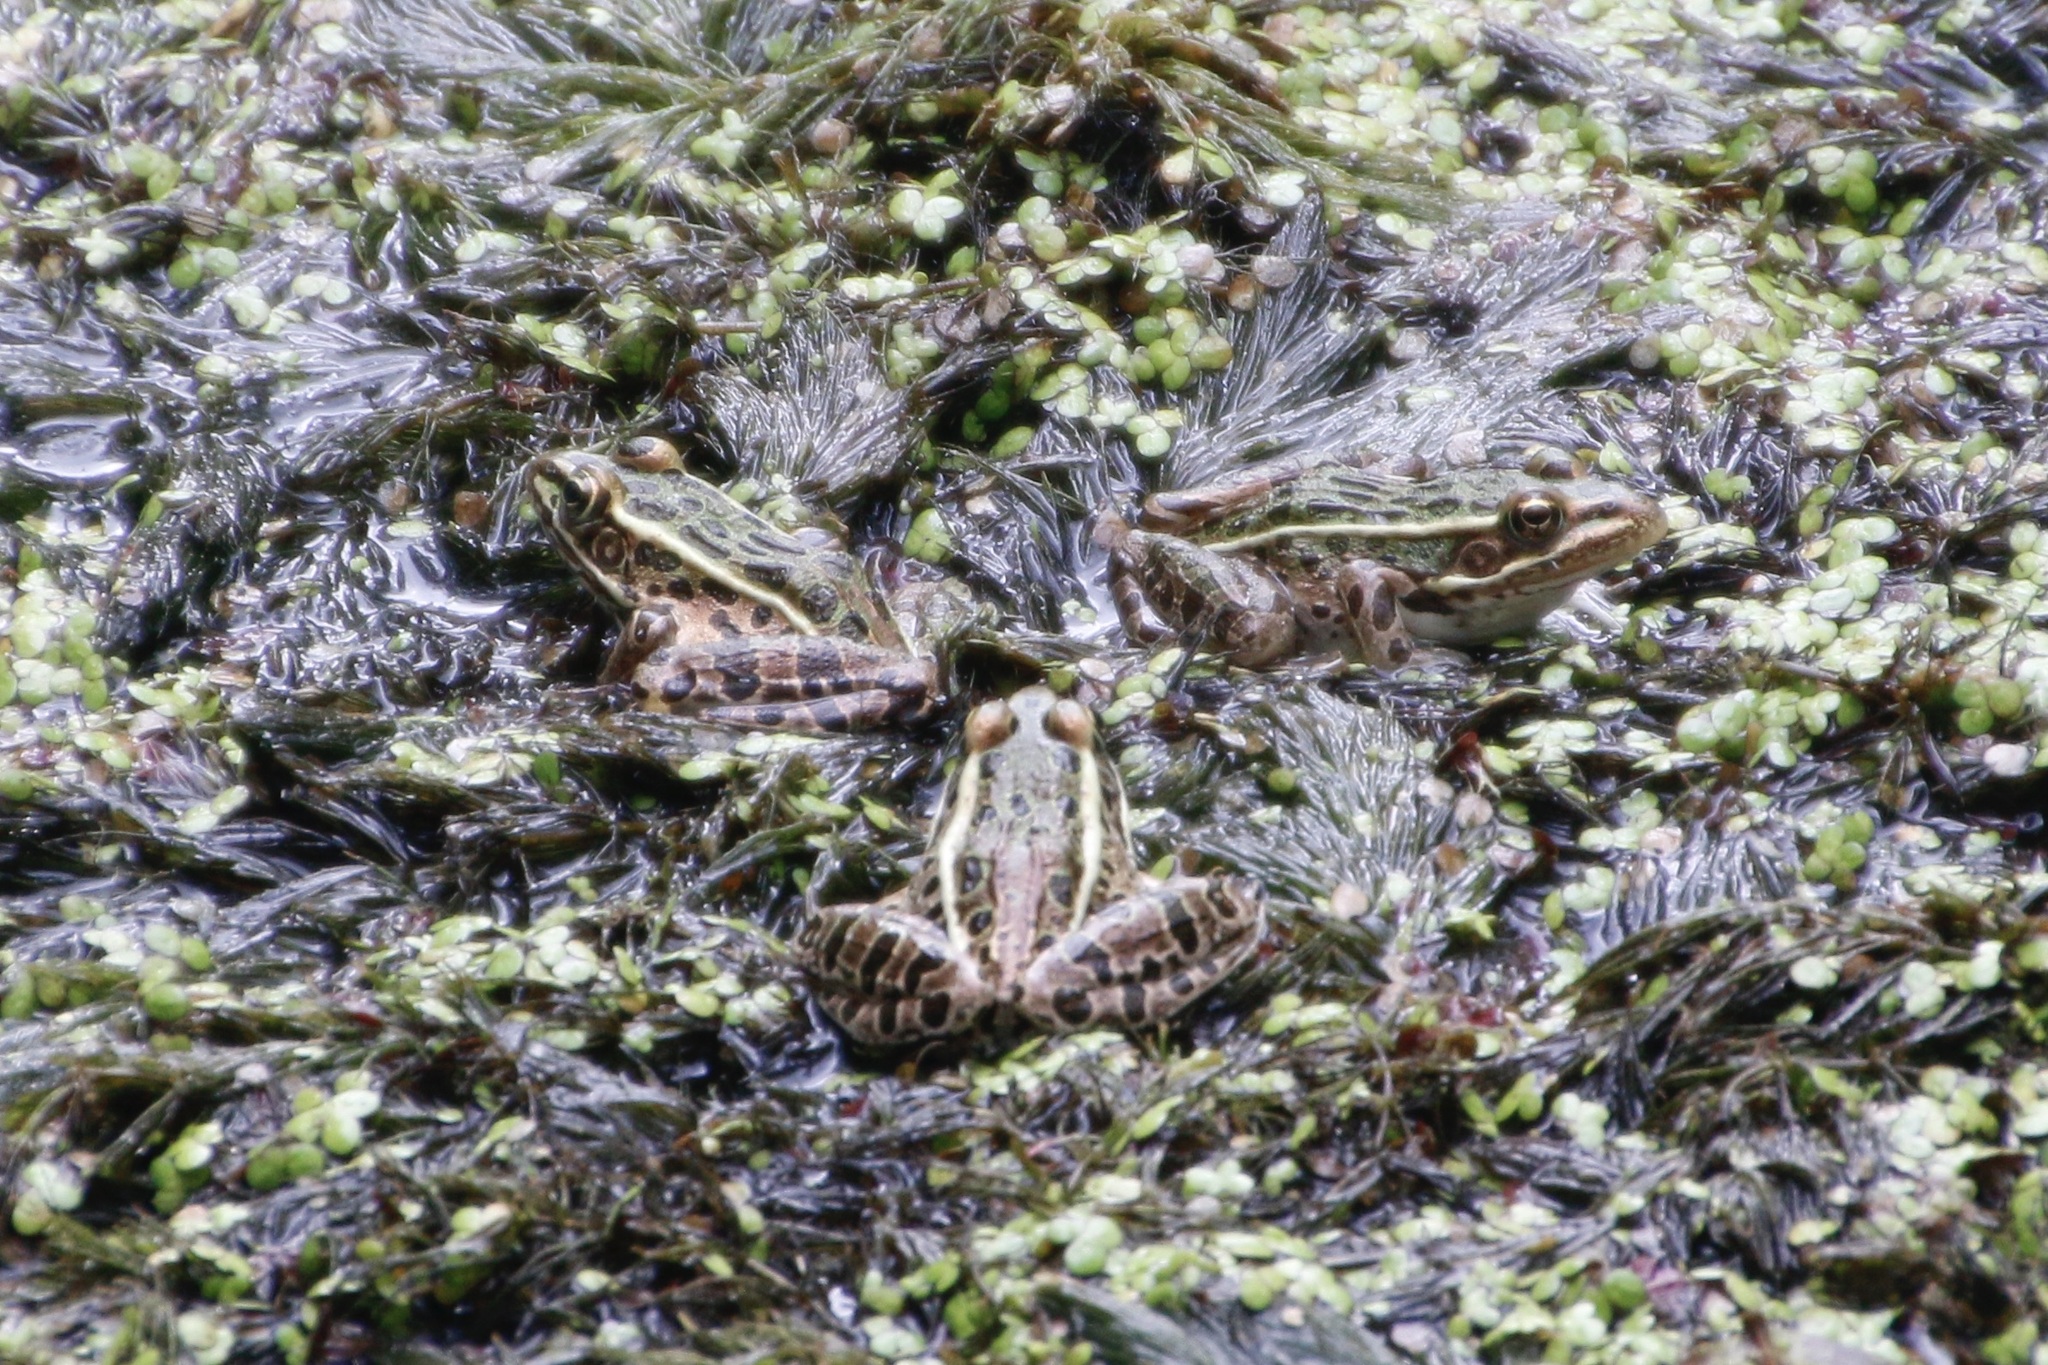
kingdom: Animalia
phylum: Chordata
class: Amphibia
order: Anura
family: Ranidae
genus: Lithobates
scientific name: Lithobates pipiens
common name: Northern leopard frog
